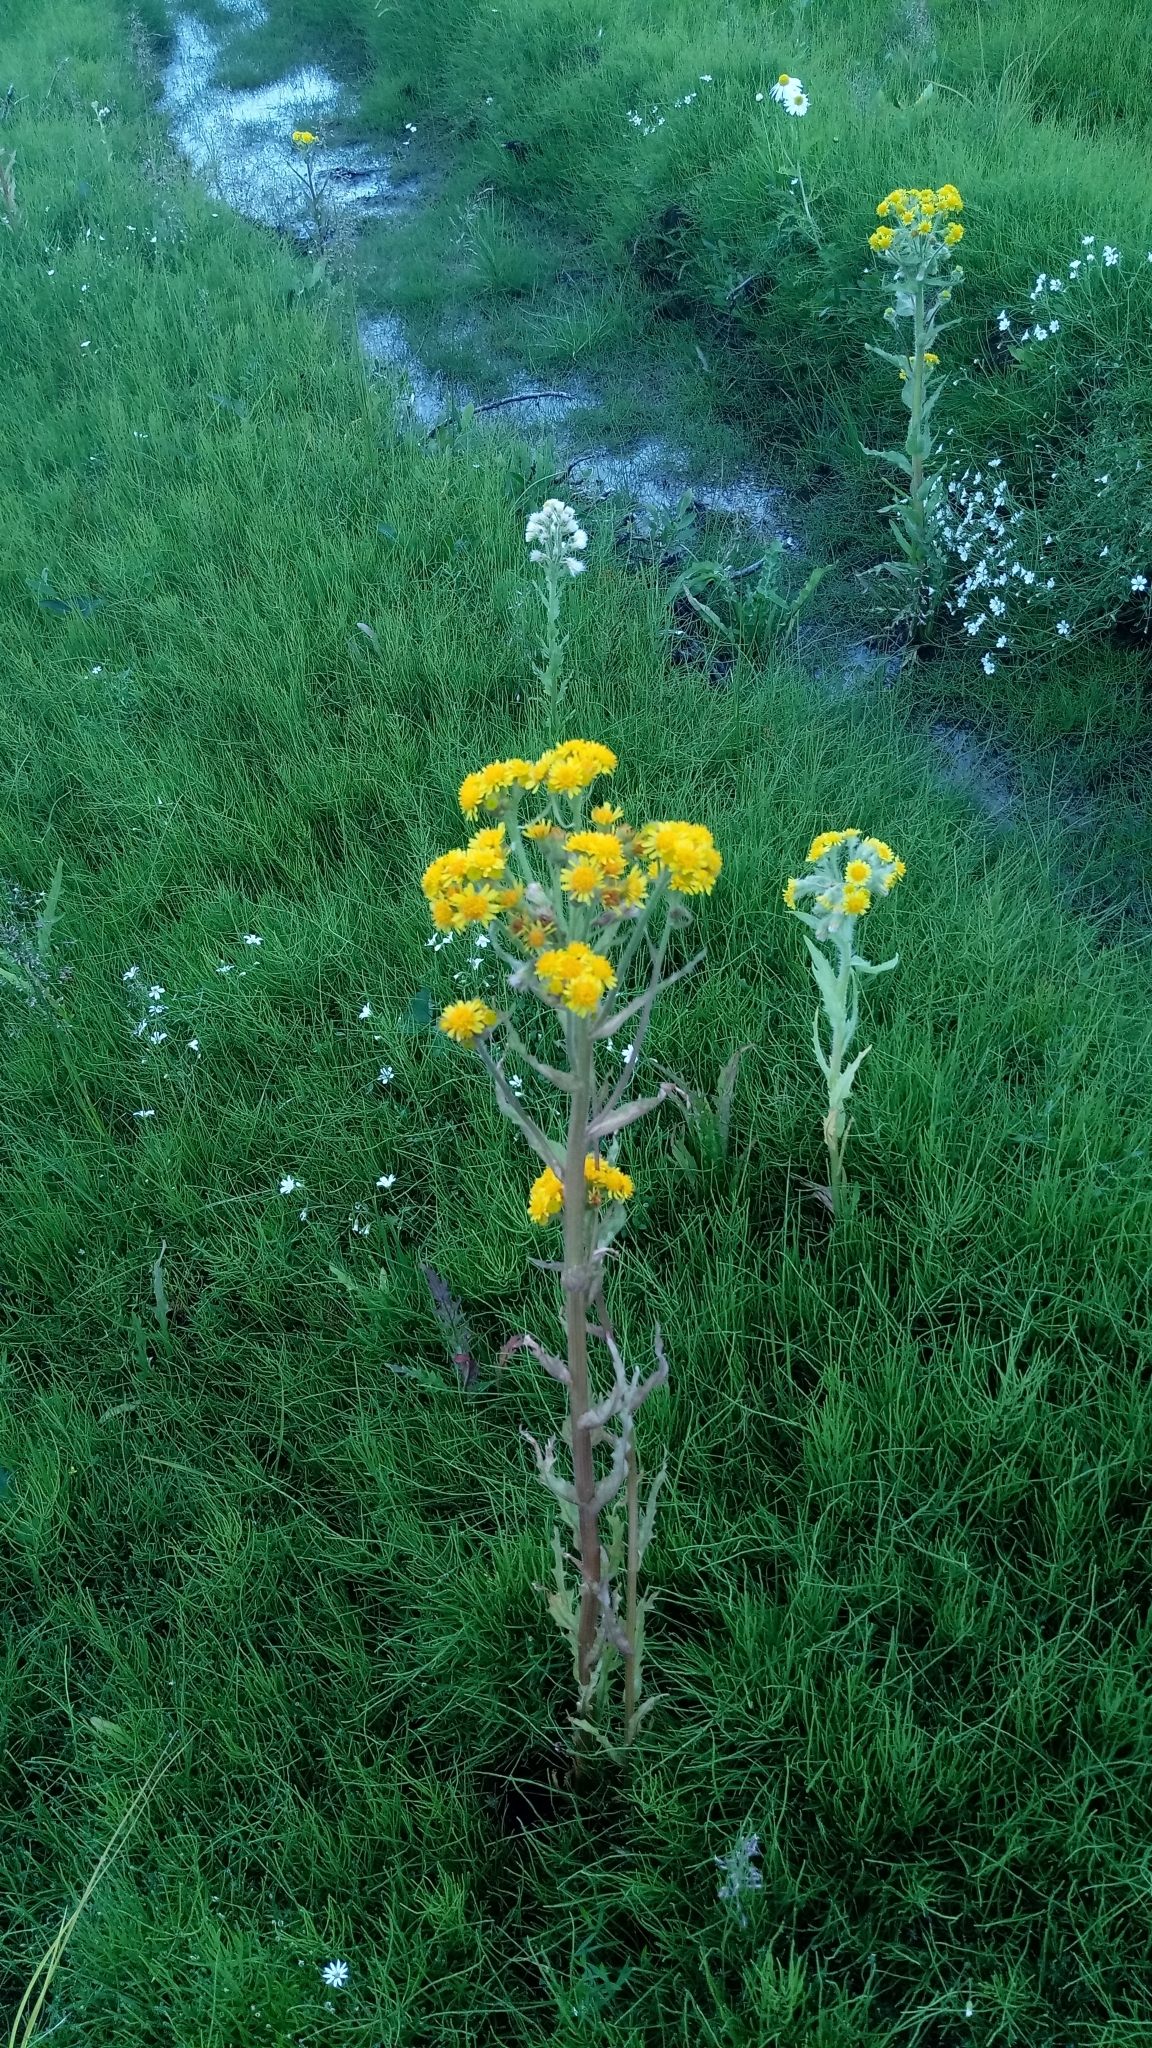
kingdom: Plantae
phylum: Tracheophyta
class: Magnoliopsida
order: Asterales
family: Asteraceae
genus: Tephroseris
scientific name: Tephroseris palustris
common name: Marsh fleawort
